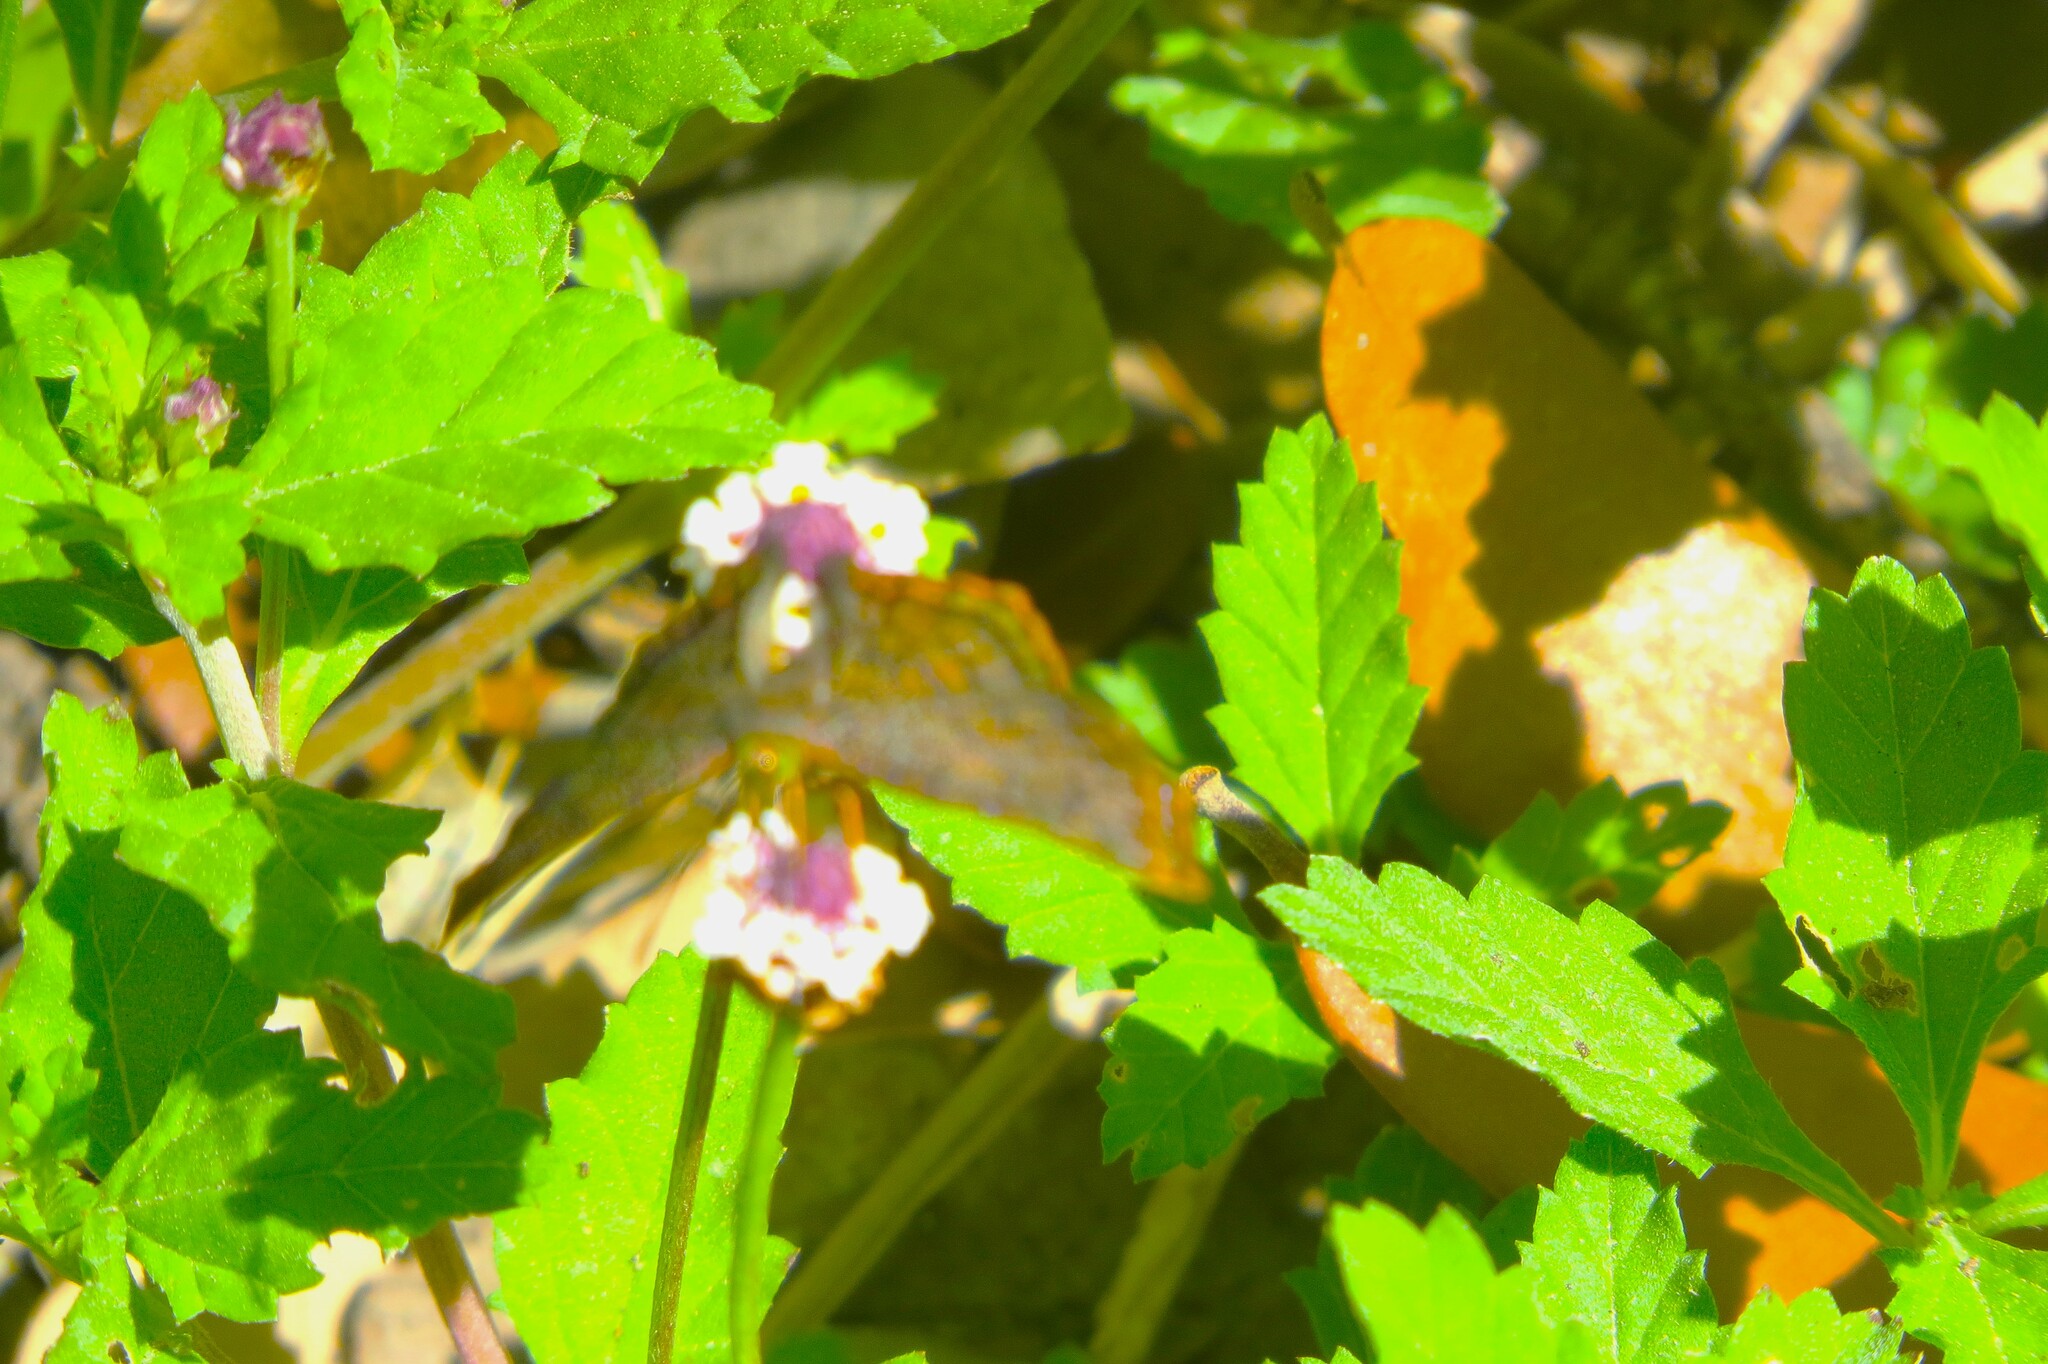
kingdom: Animalia
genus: Caria
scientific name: Caria ino
